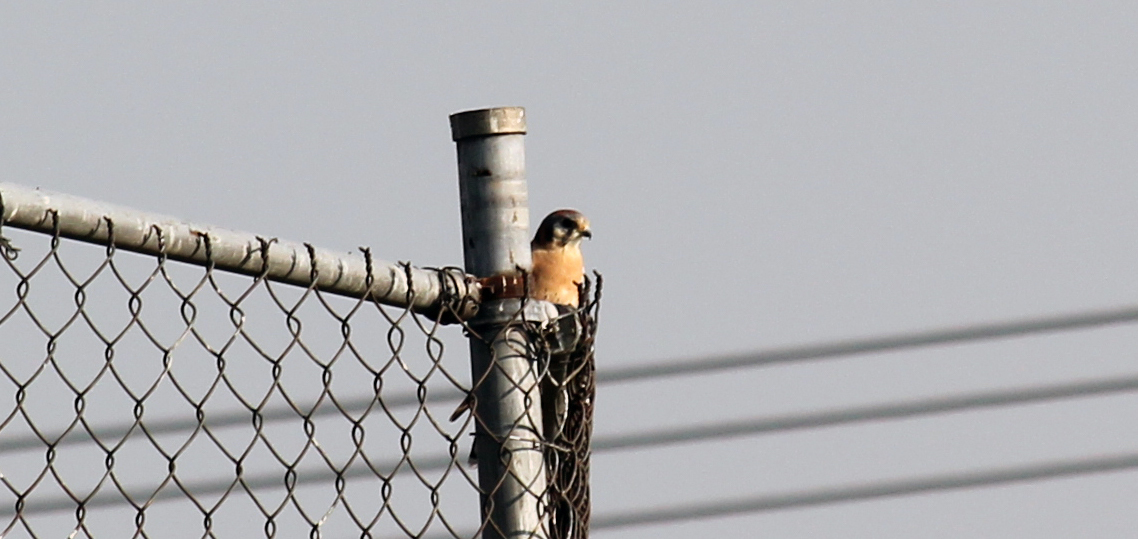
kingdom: Animalia
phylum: Chordata
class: Aves
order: Falconiformes
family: Falconidae
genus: Falco
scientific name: Falco sparverius
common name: American kestrel
